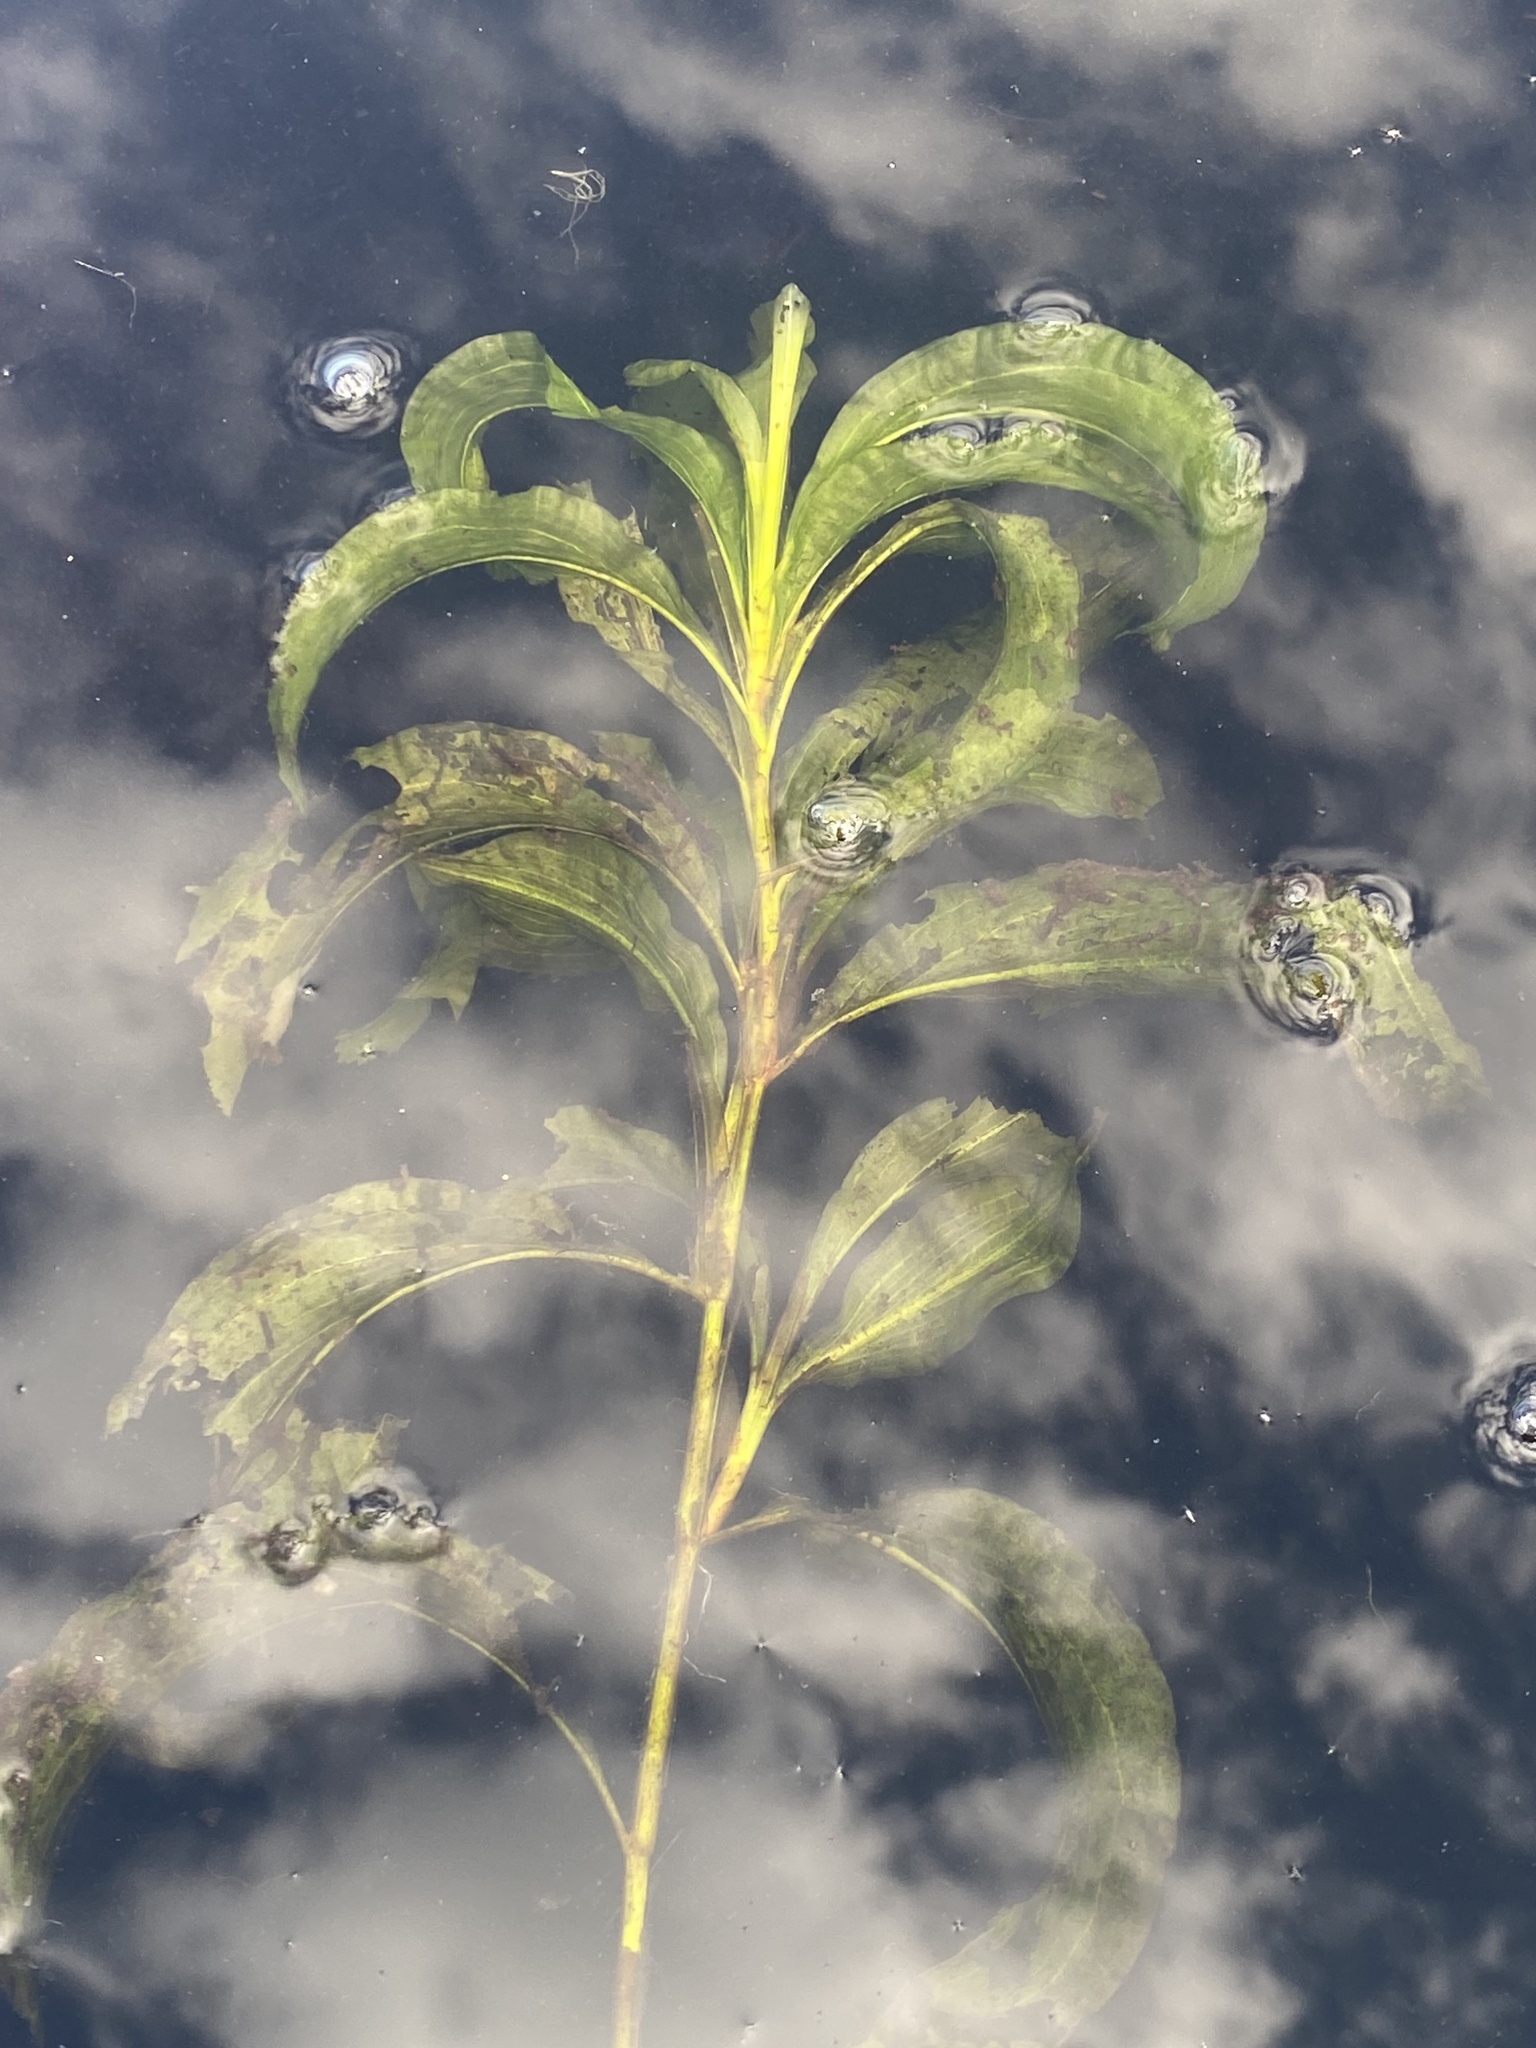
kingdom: Plantae
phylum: Tracheophyta
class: Liliopsida
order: Alismatales
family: Potamogetonaceae
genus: Potamogeton
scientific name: Potamogeton amplifolius
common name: Broad-leaved pondweed
